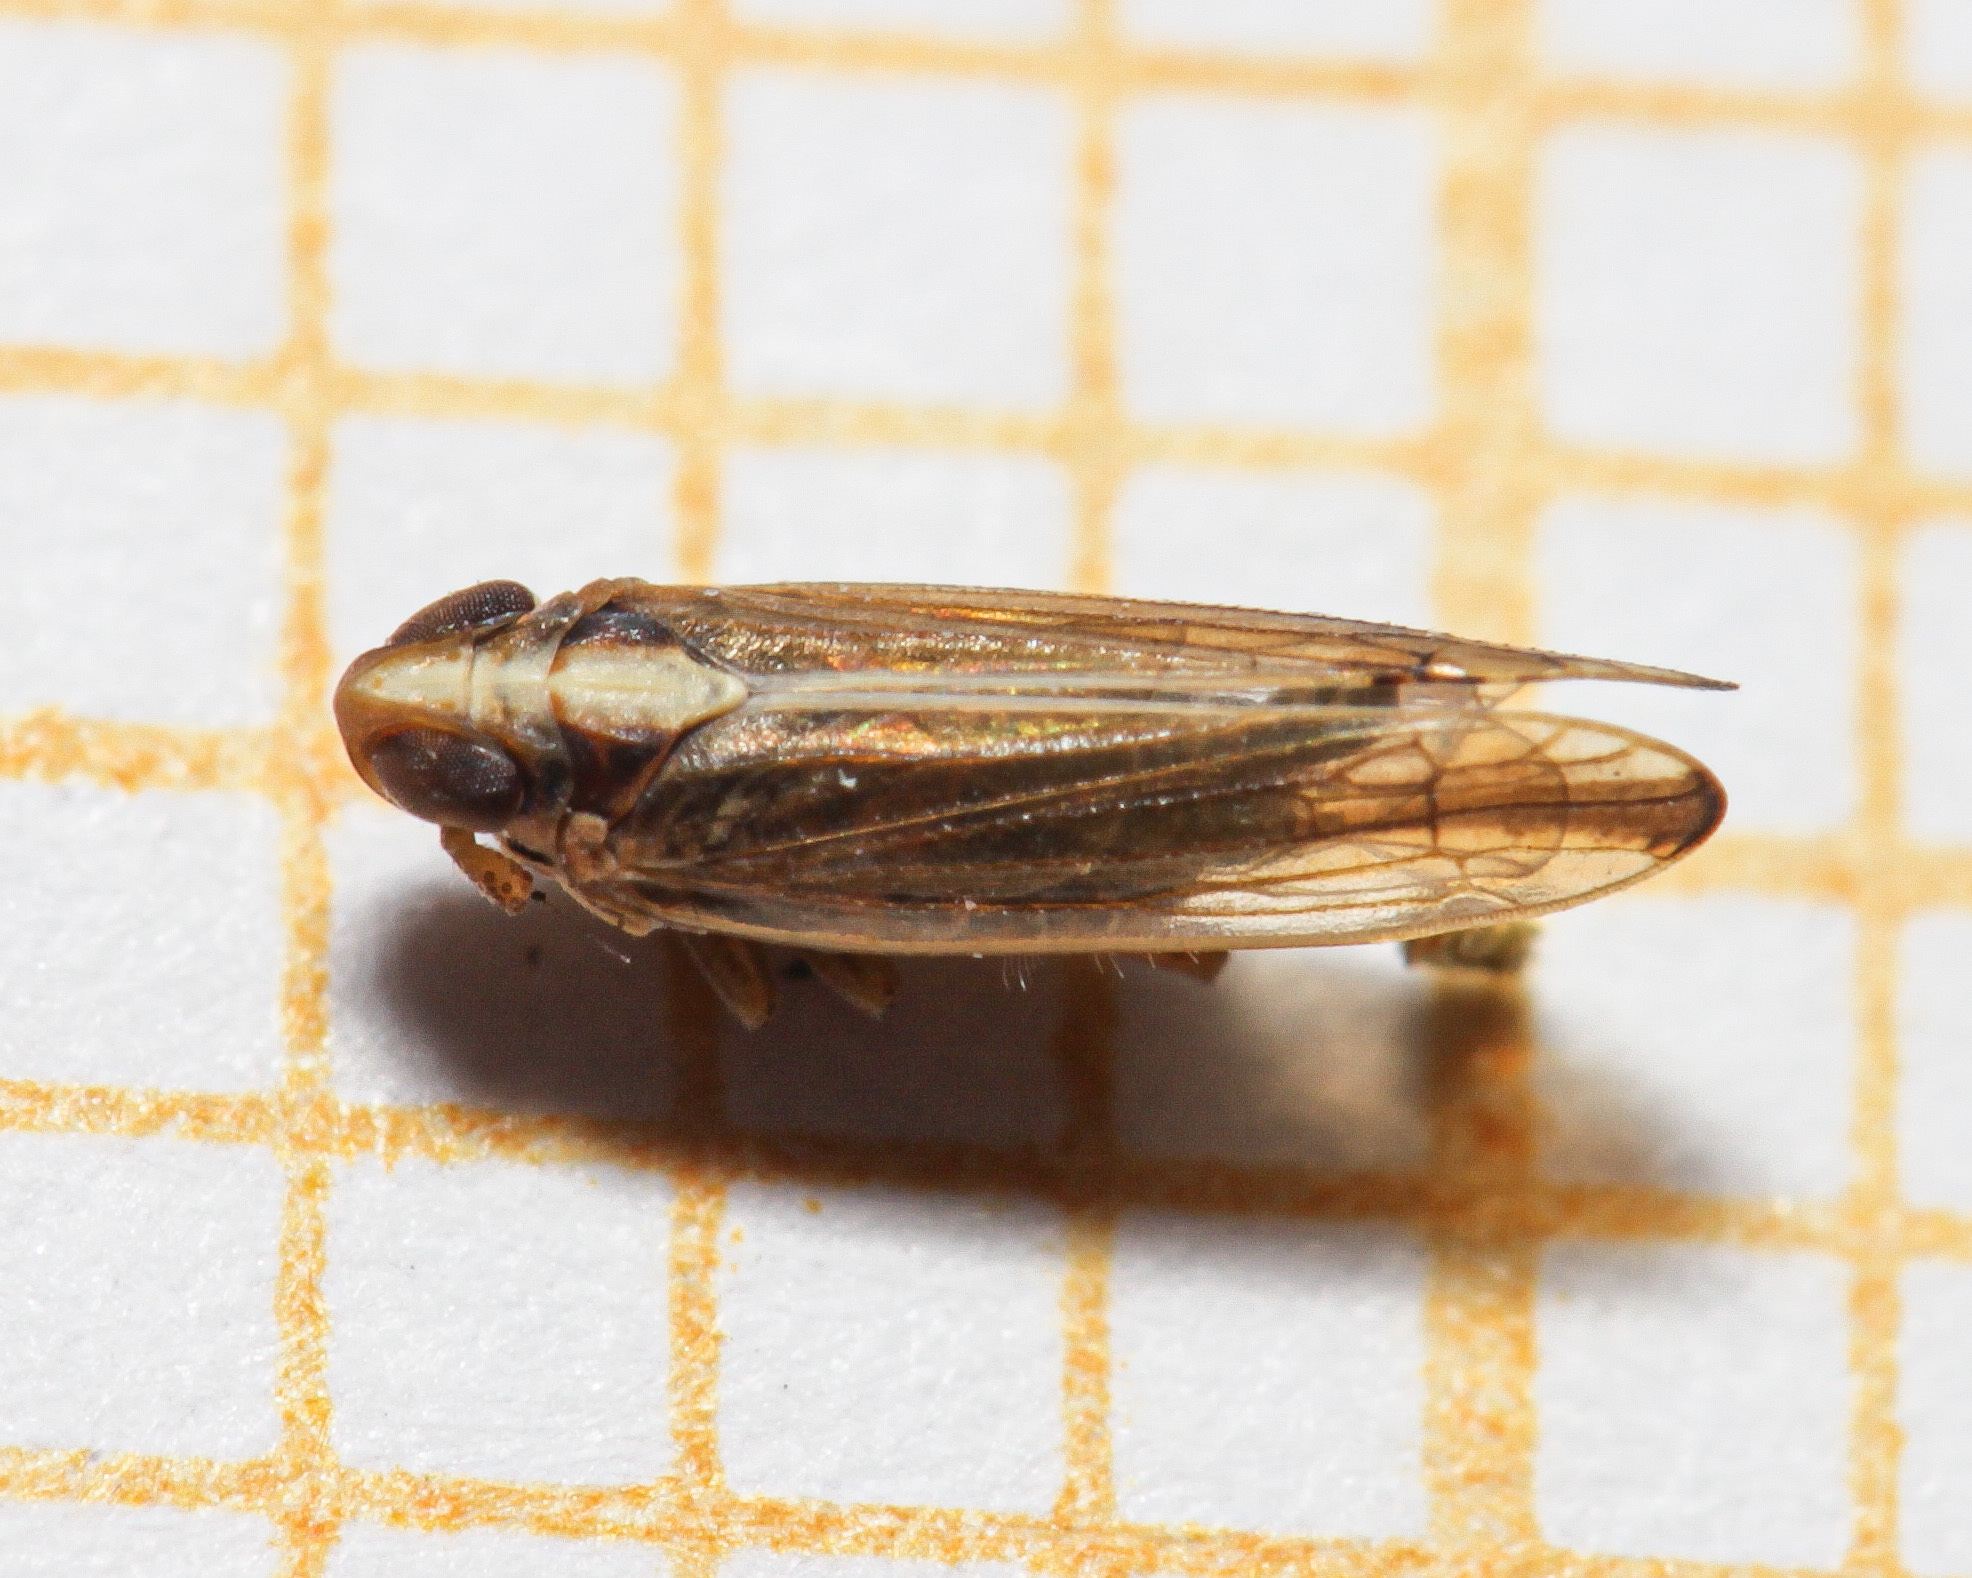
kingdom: Animalia
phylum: Arthropoda
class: Insecta
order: Hemiptera
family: Delphacidae
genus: Kelisia
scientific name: Kelisia praecox
